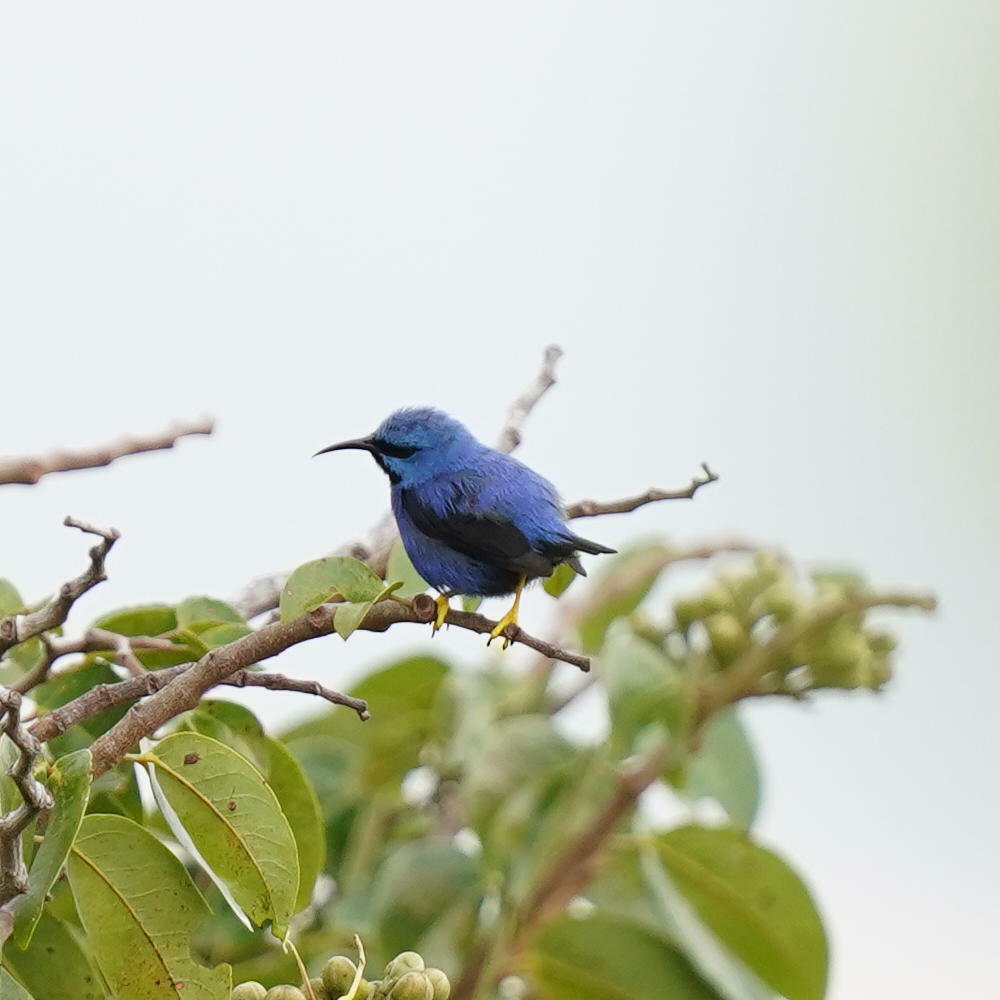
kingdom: Animalia
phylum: Chordata
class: Aves
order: Passeriformes
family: Thraupidae
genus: Cyanerpes
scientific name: Cyanerpes lucidus
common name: Shining honeycreeper
